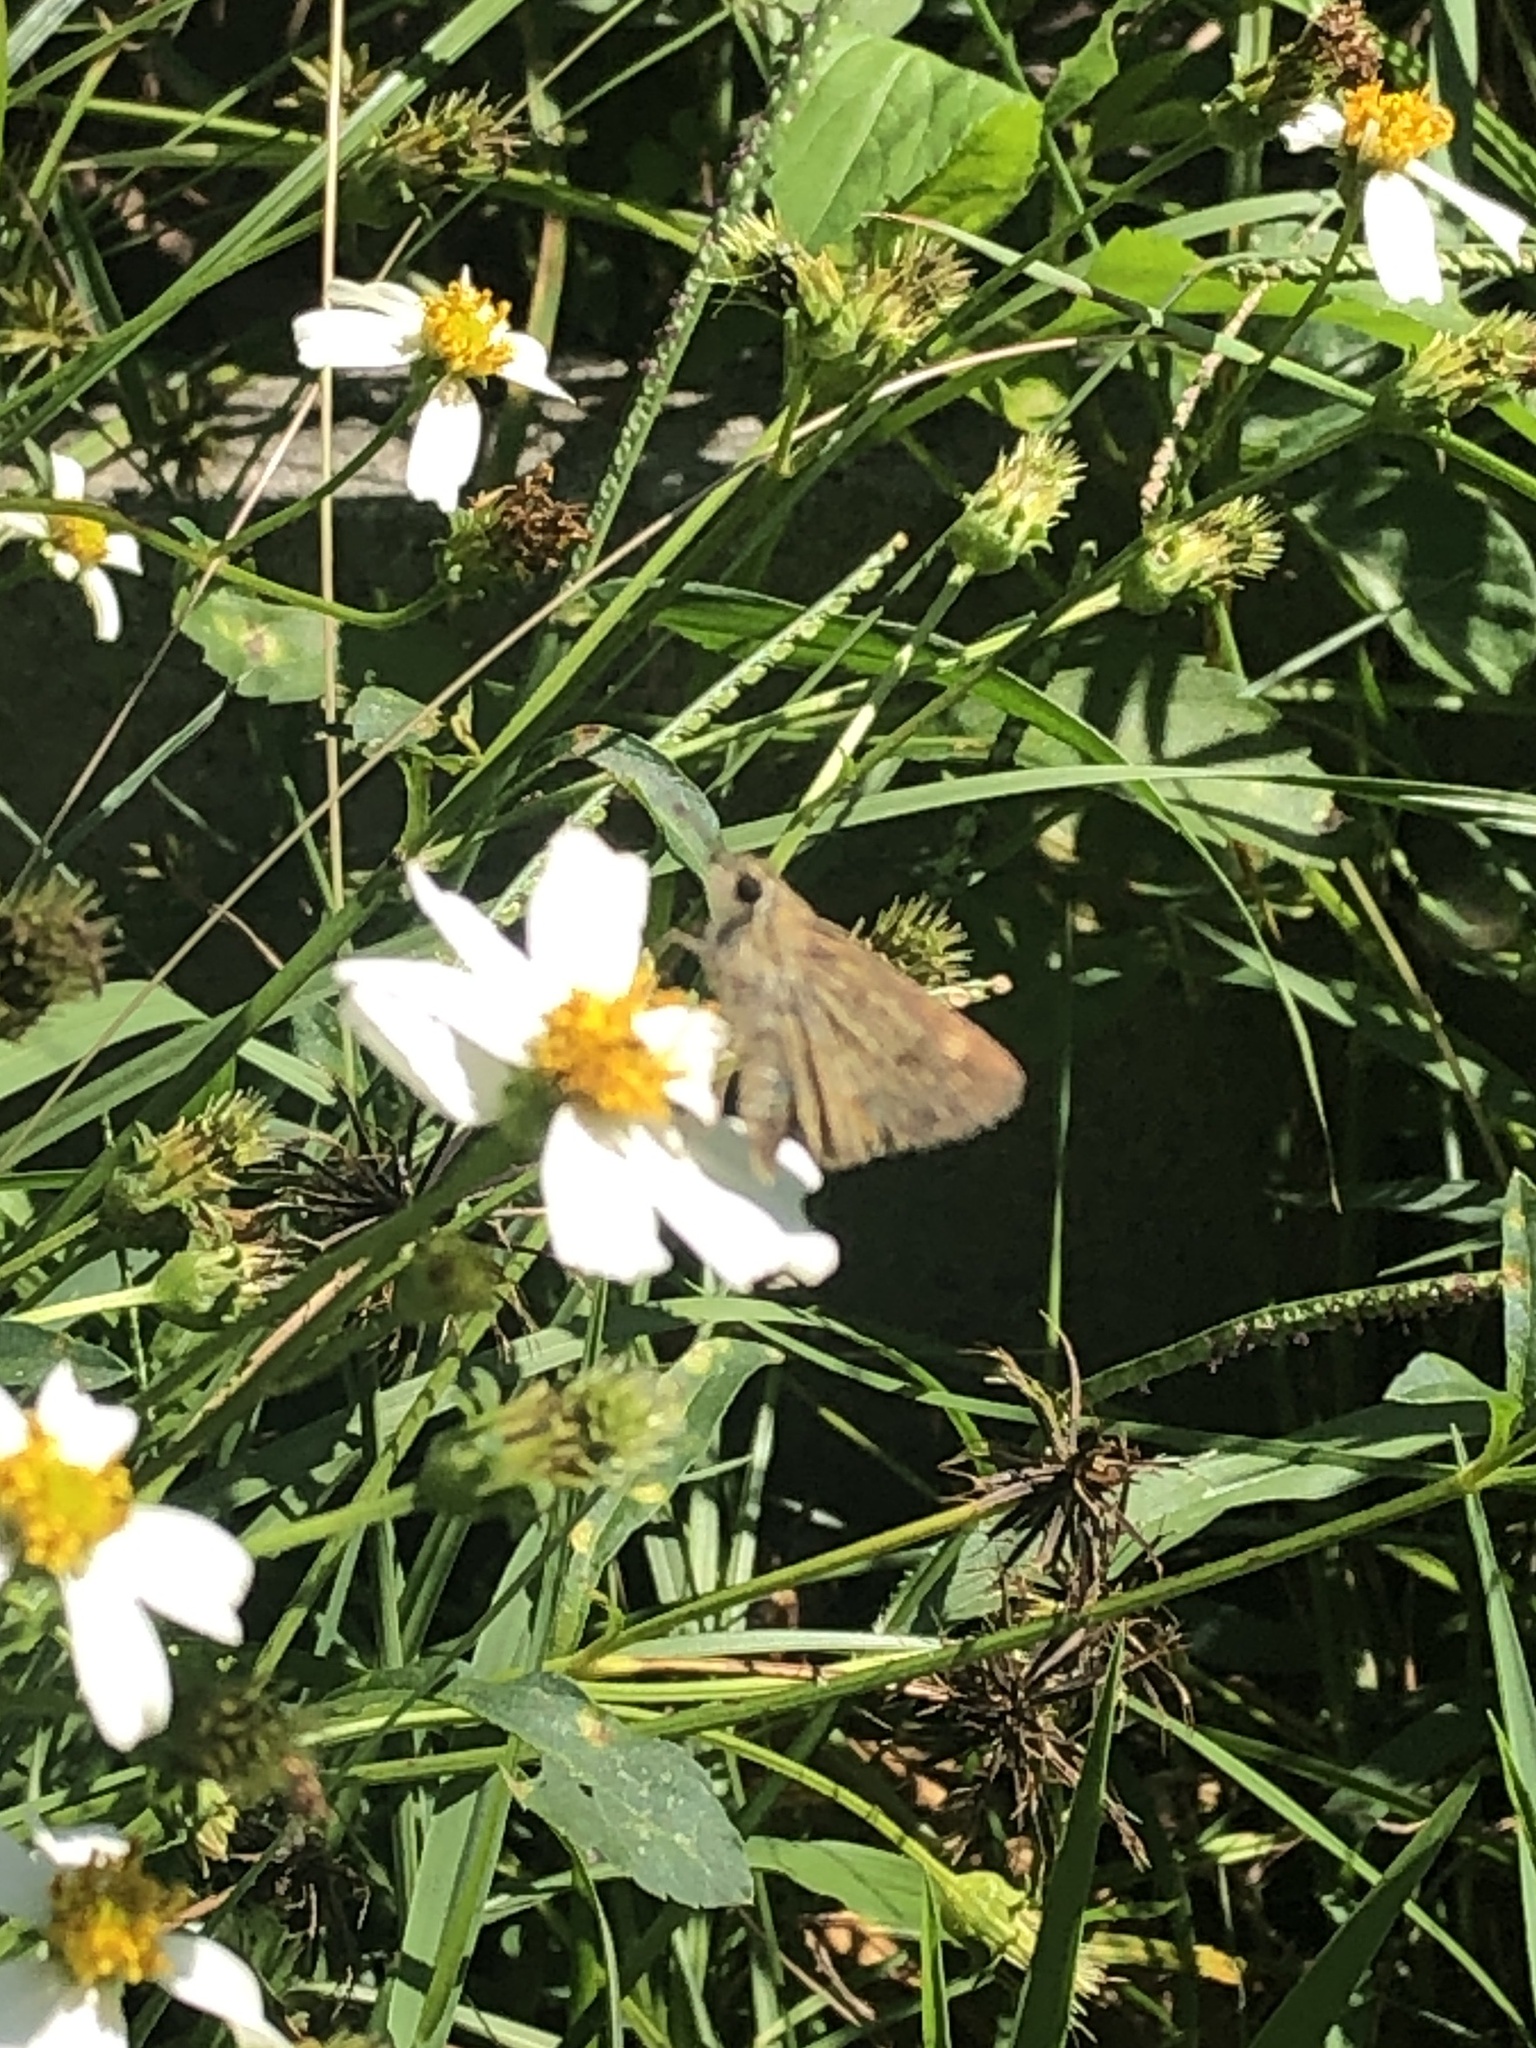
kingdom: Animalia
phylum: Arthropoda
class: Insecta
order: Lepidoptera
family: Hesperiidae
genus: Polites
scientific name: Polites vibex
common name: Whirlabout
